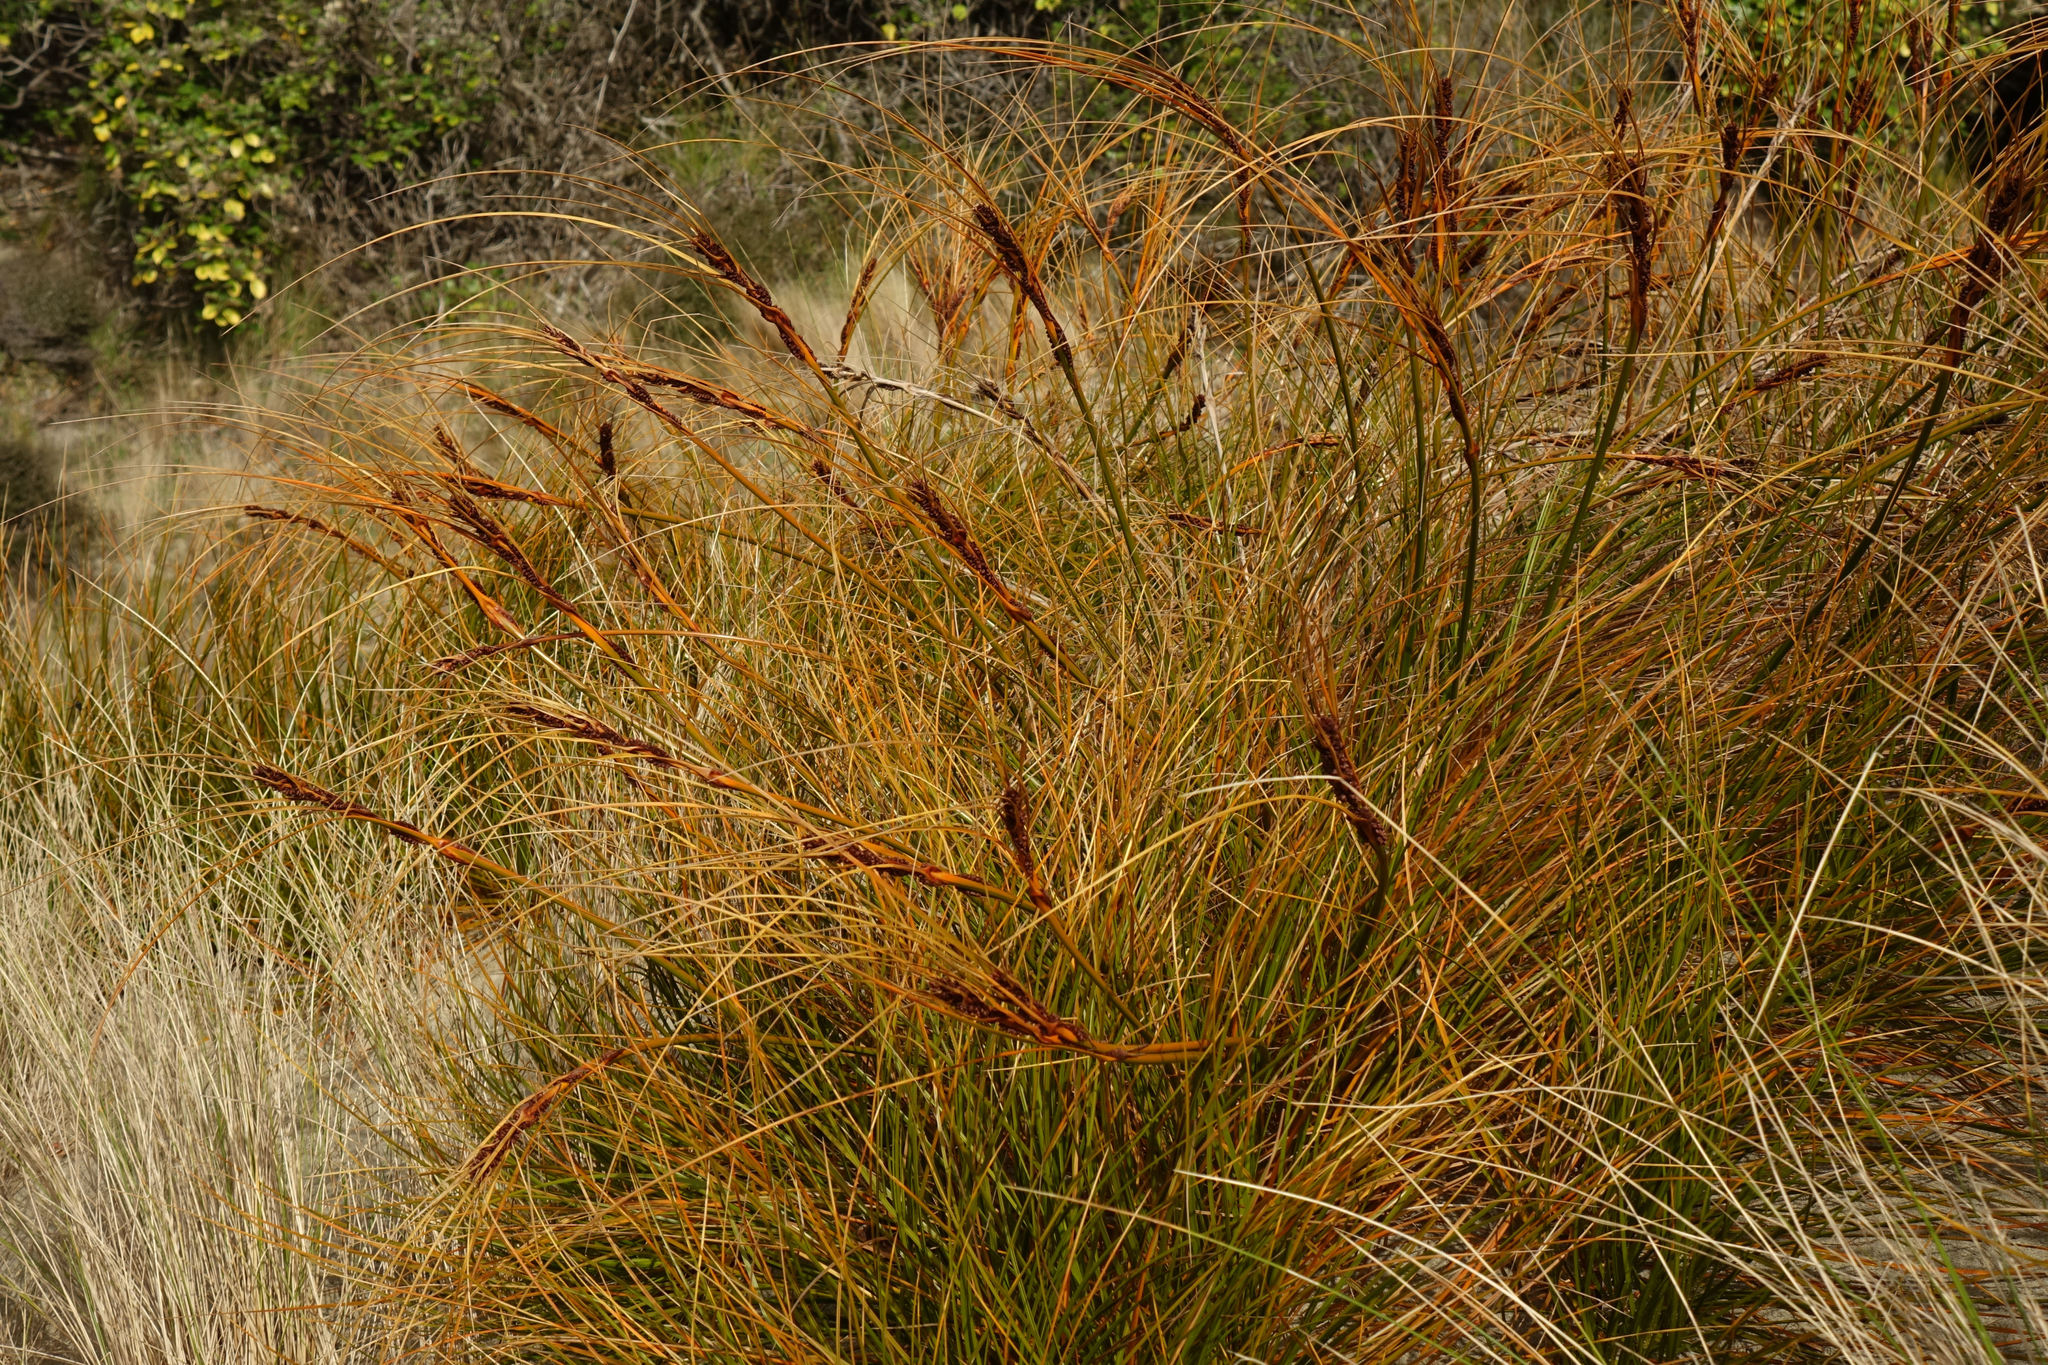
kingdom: Plantae
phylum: Tracheophyta
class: Liliopsida
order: Poales
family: Cyperaceae
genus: Ficinia
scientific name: Ficinia spiralis
